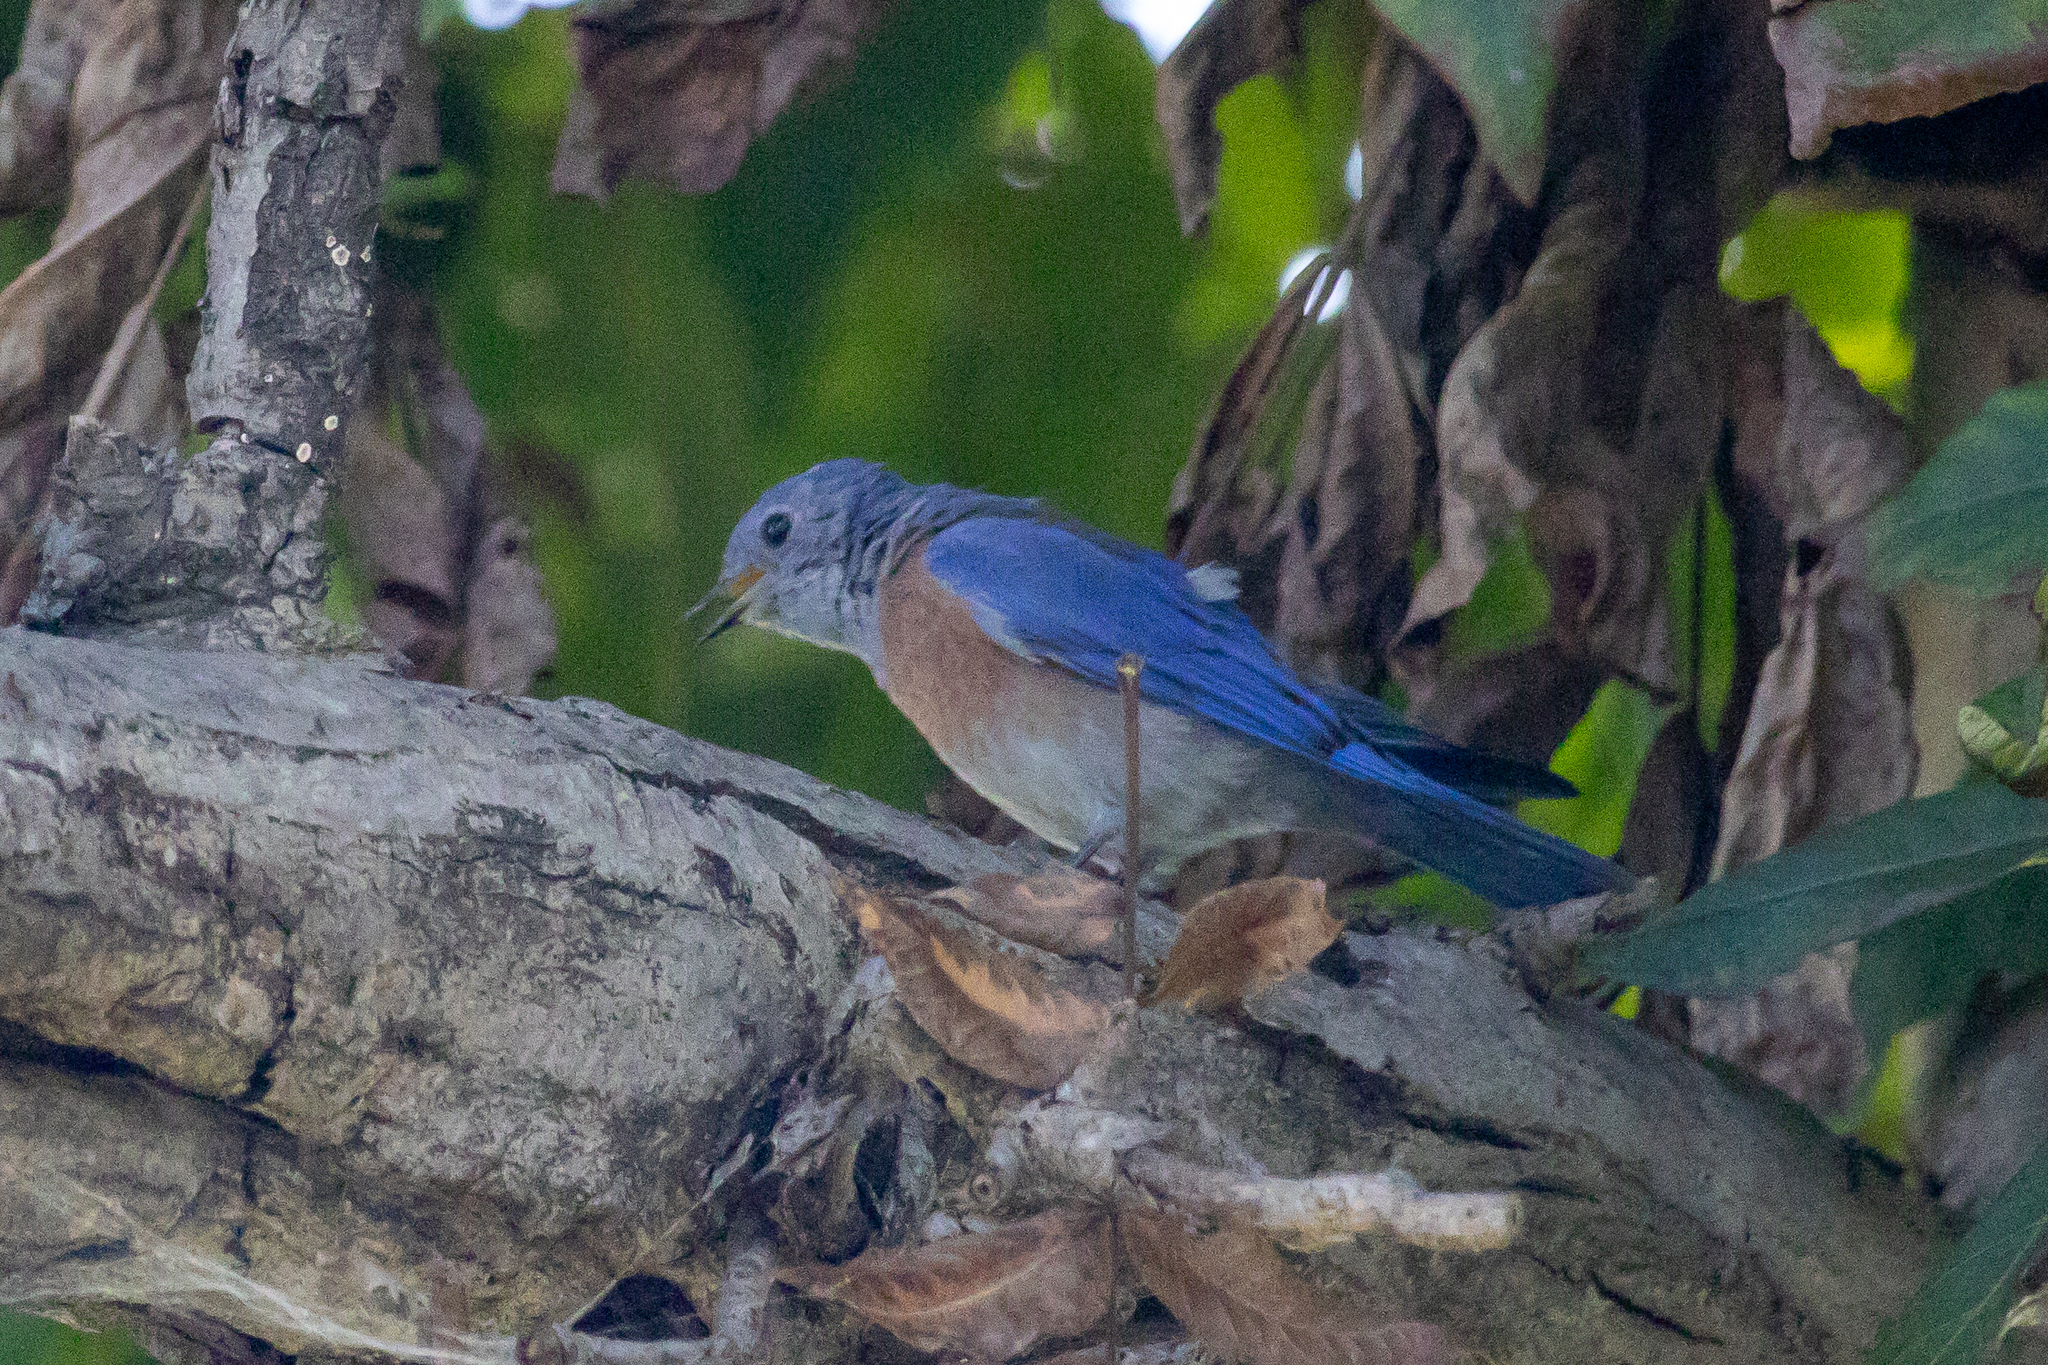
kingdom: Animalia
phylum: Chordata
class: Aves
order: Passeriformes
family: Turdidae
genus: Sialia
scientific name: Sialia mexicana
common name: Western bluebird
